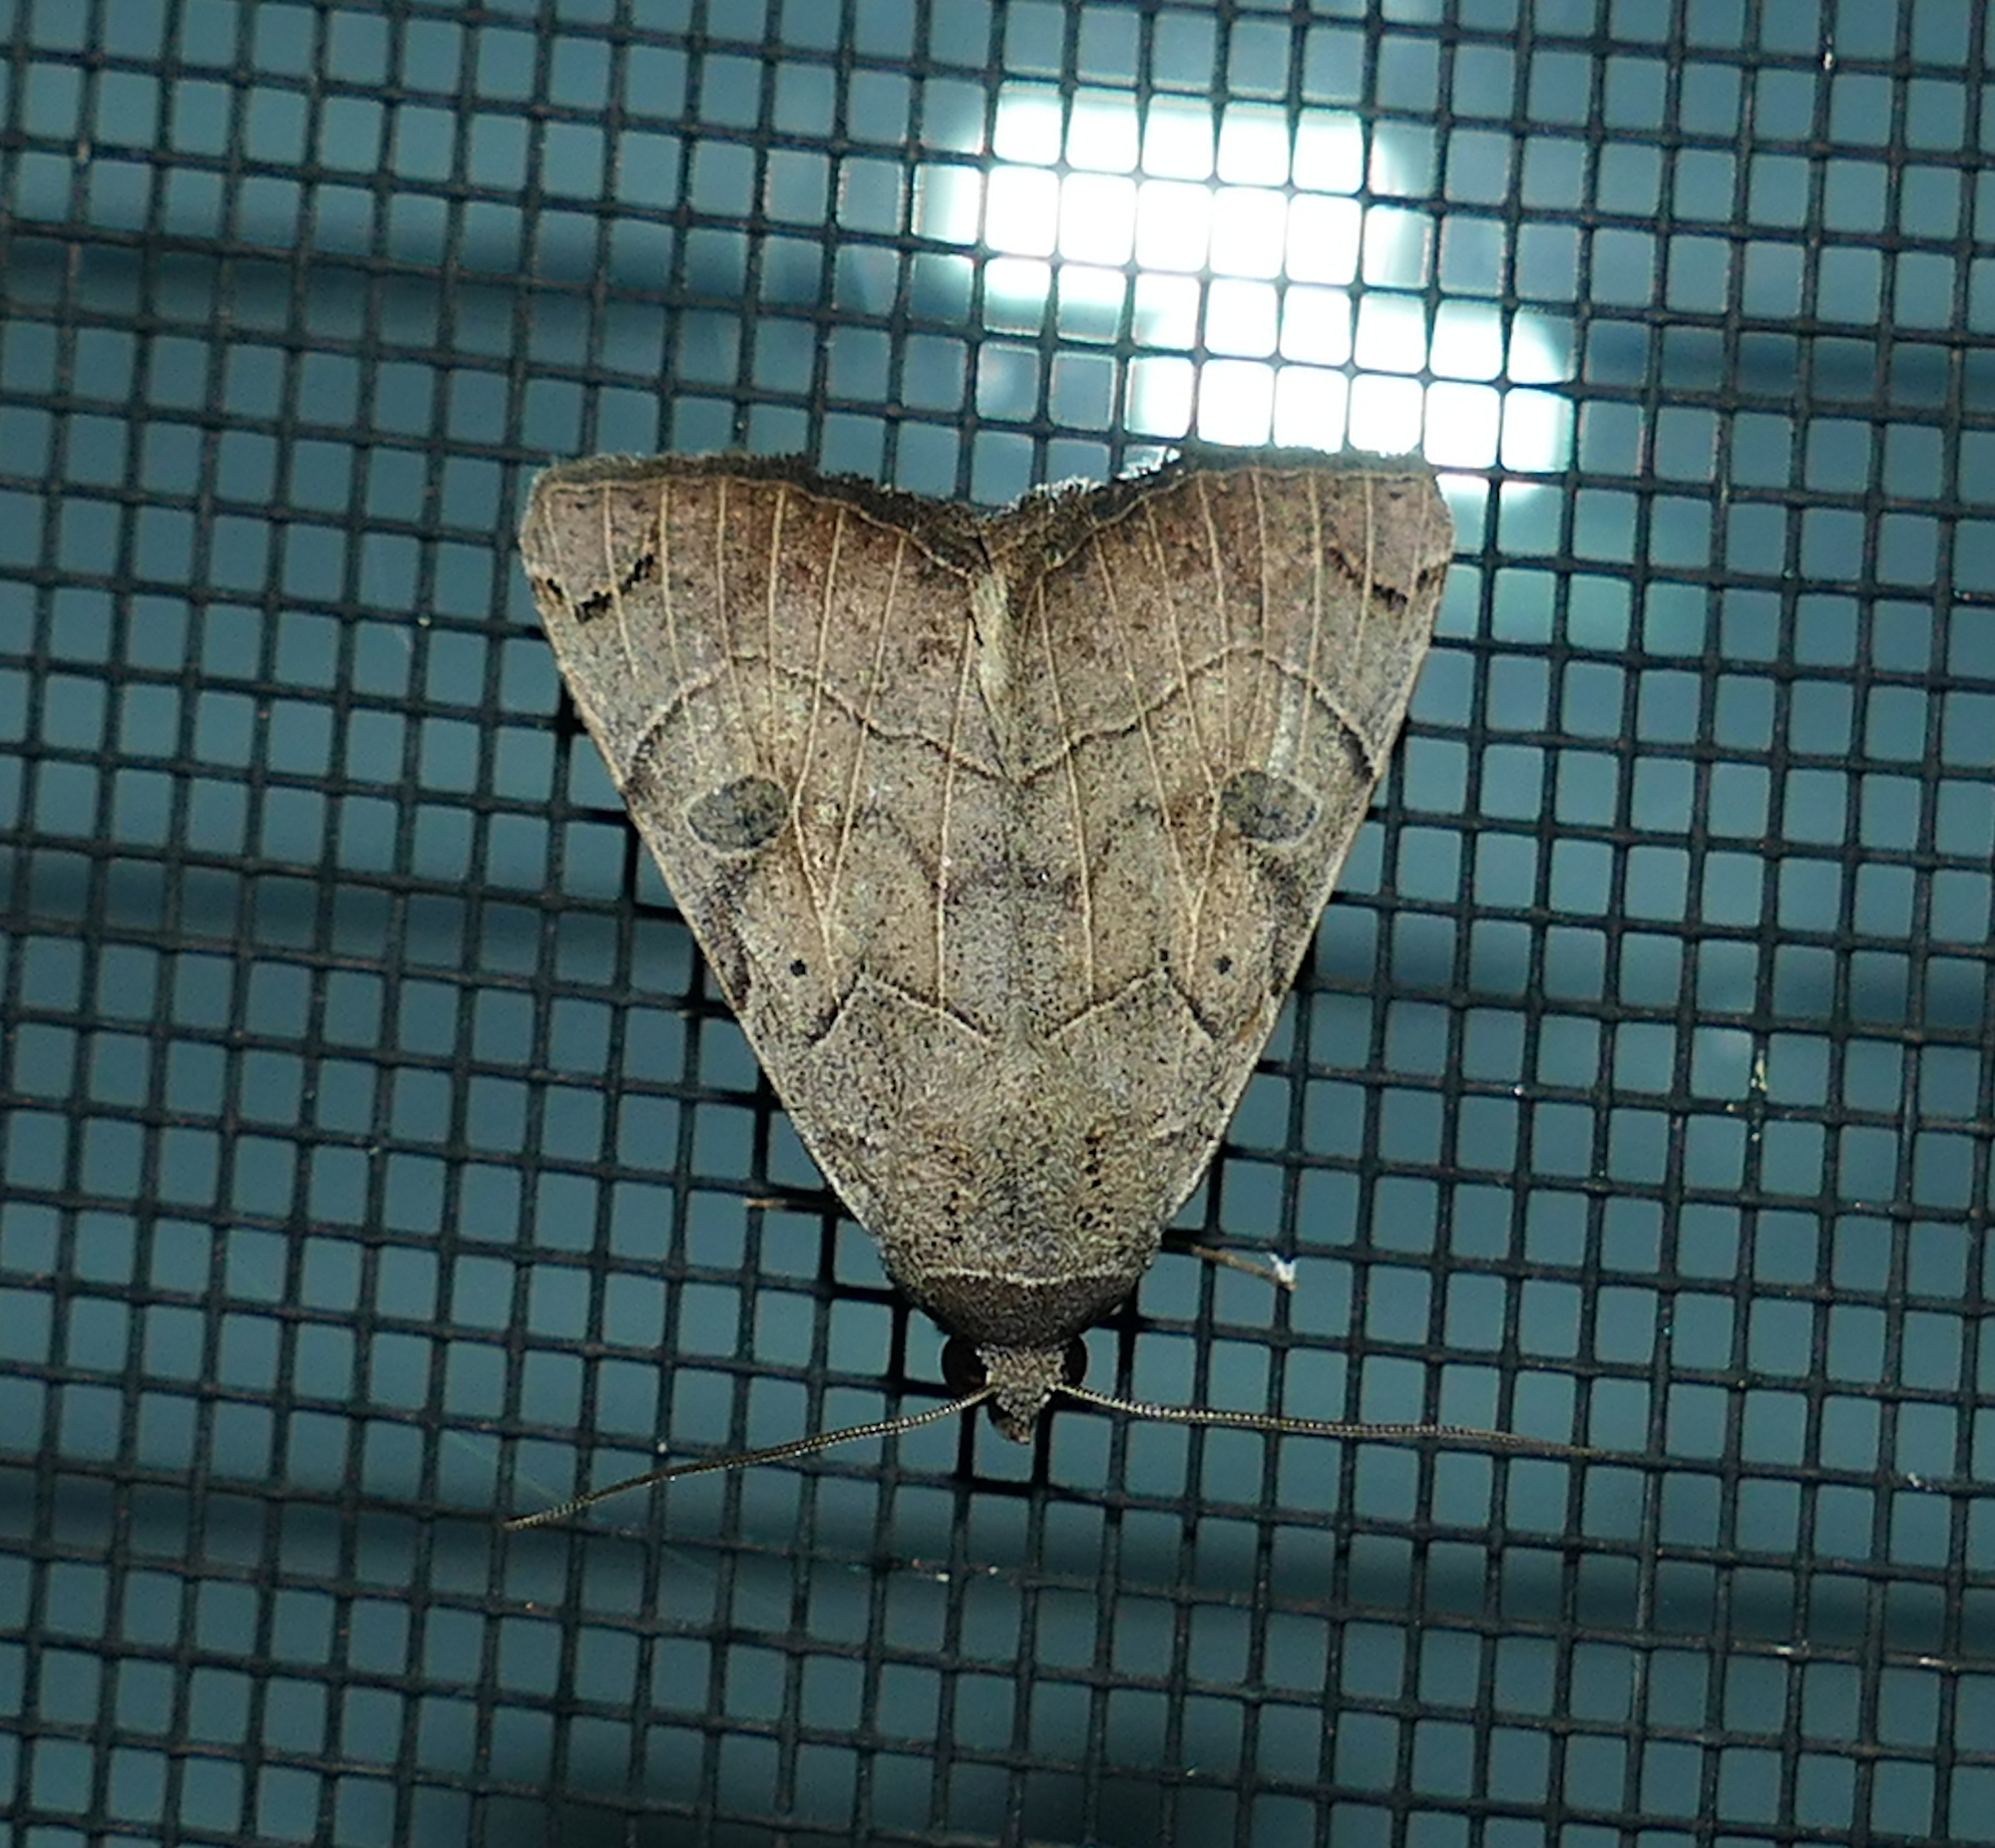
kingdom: Animalia
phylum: Arthropoda
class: Insecta
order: Lepidoptera
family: Erebidae
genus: Isogona
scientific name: Isogona scindens
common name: Owlet moth
